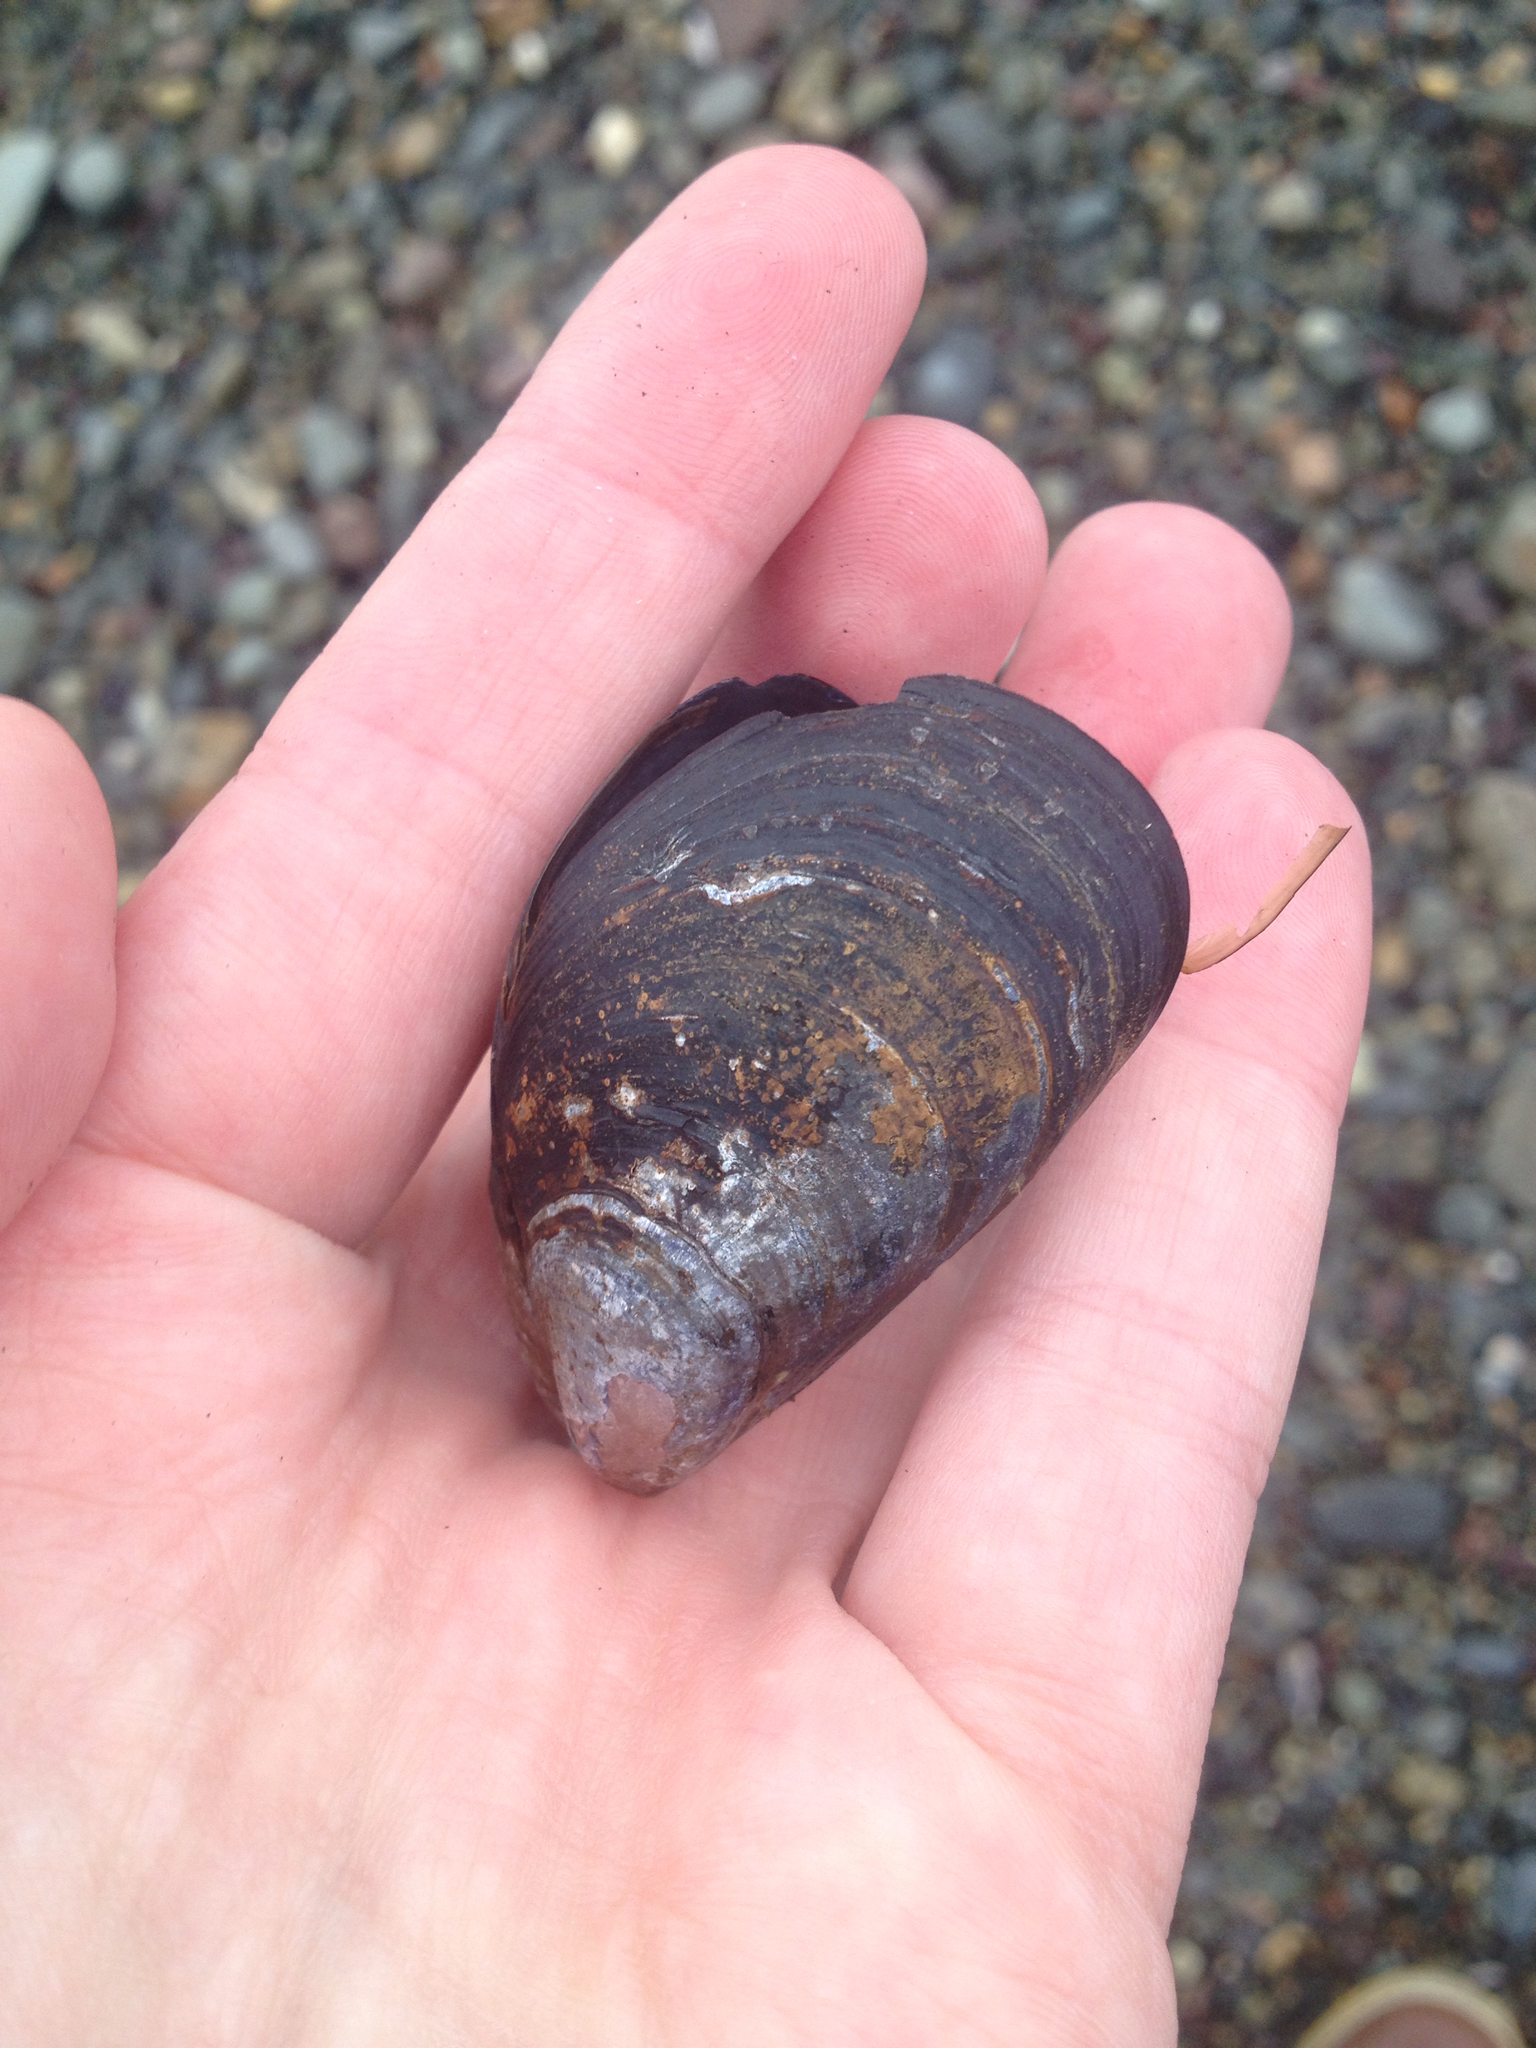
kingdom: Animalia
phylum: Mollusca
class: Bivalvia
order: Mytilida
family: Mytilidae
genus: Mytilus
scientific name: Mytilus edulis
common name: Blue mussel
